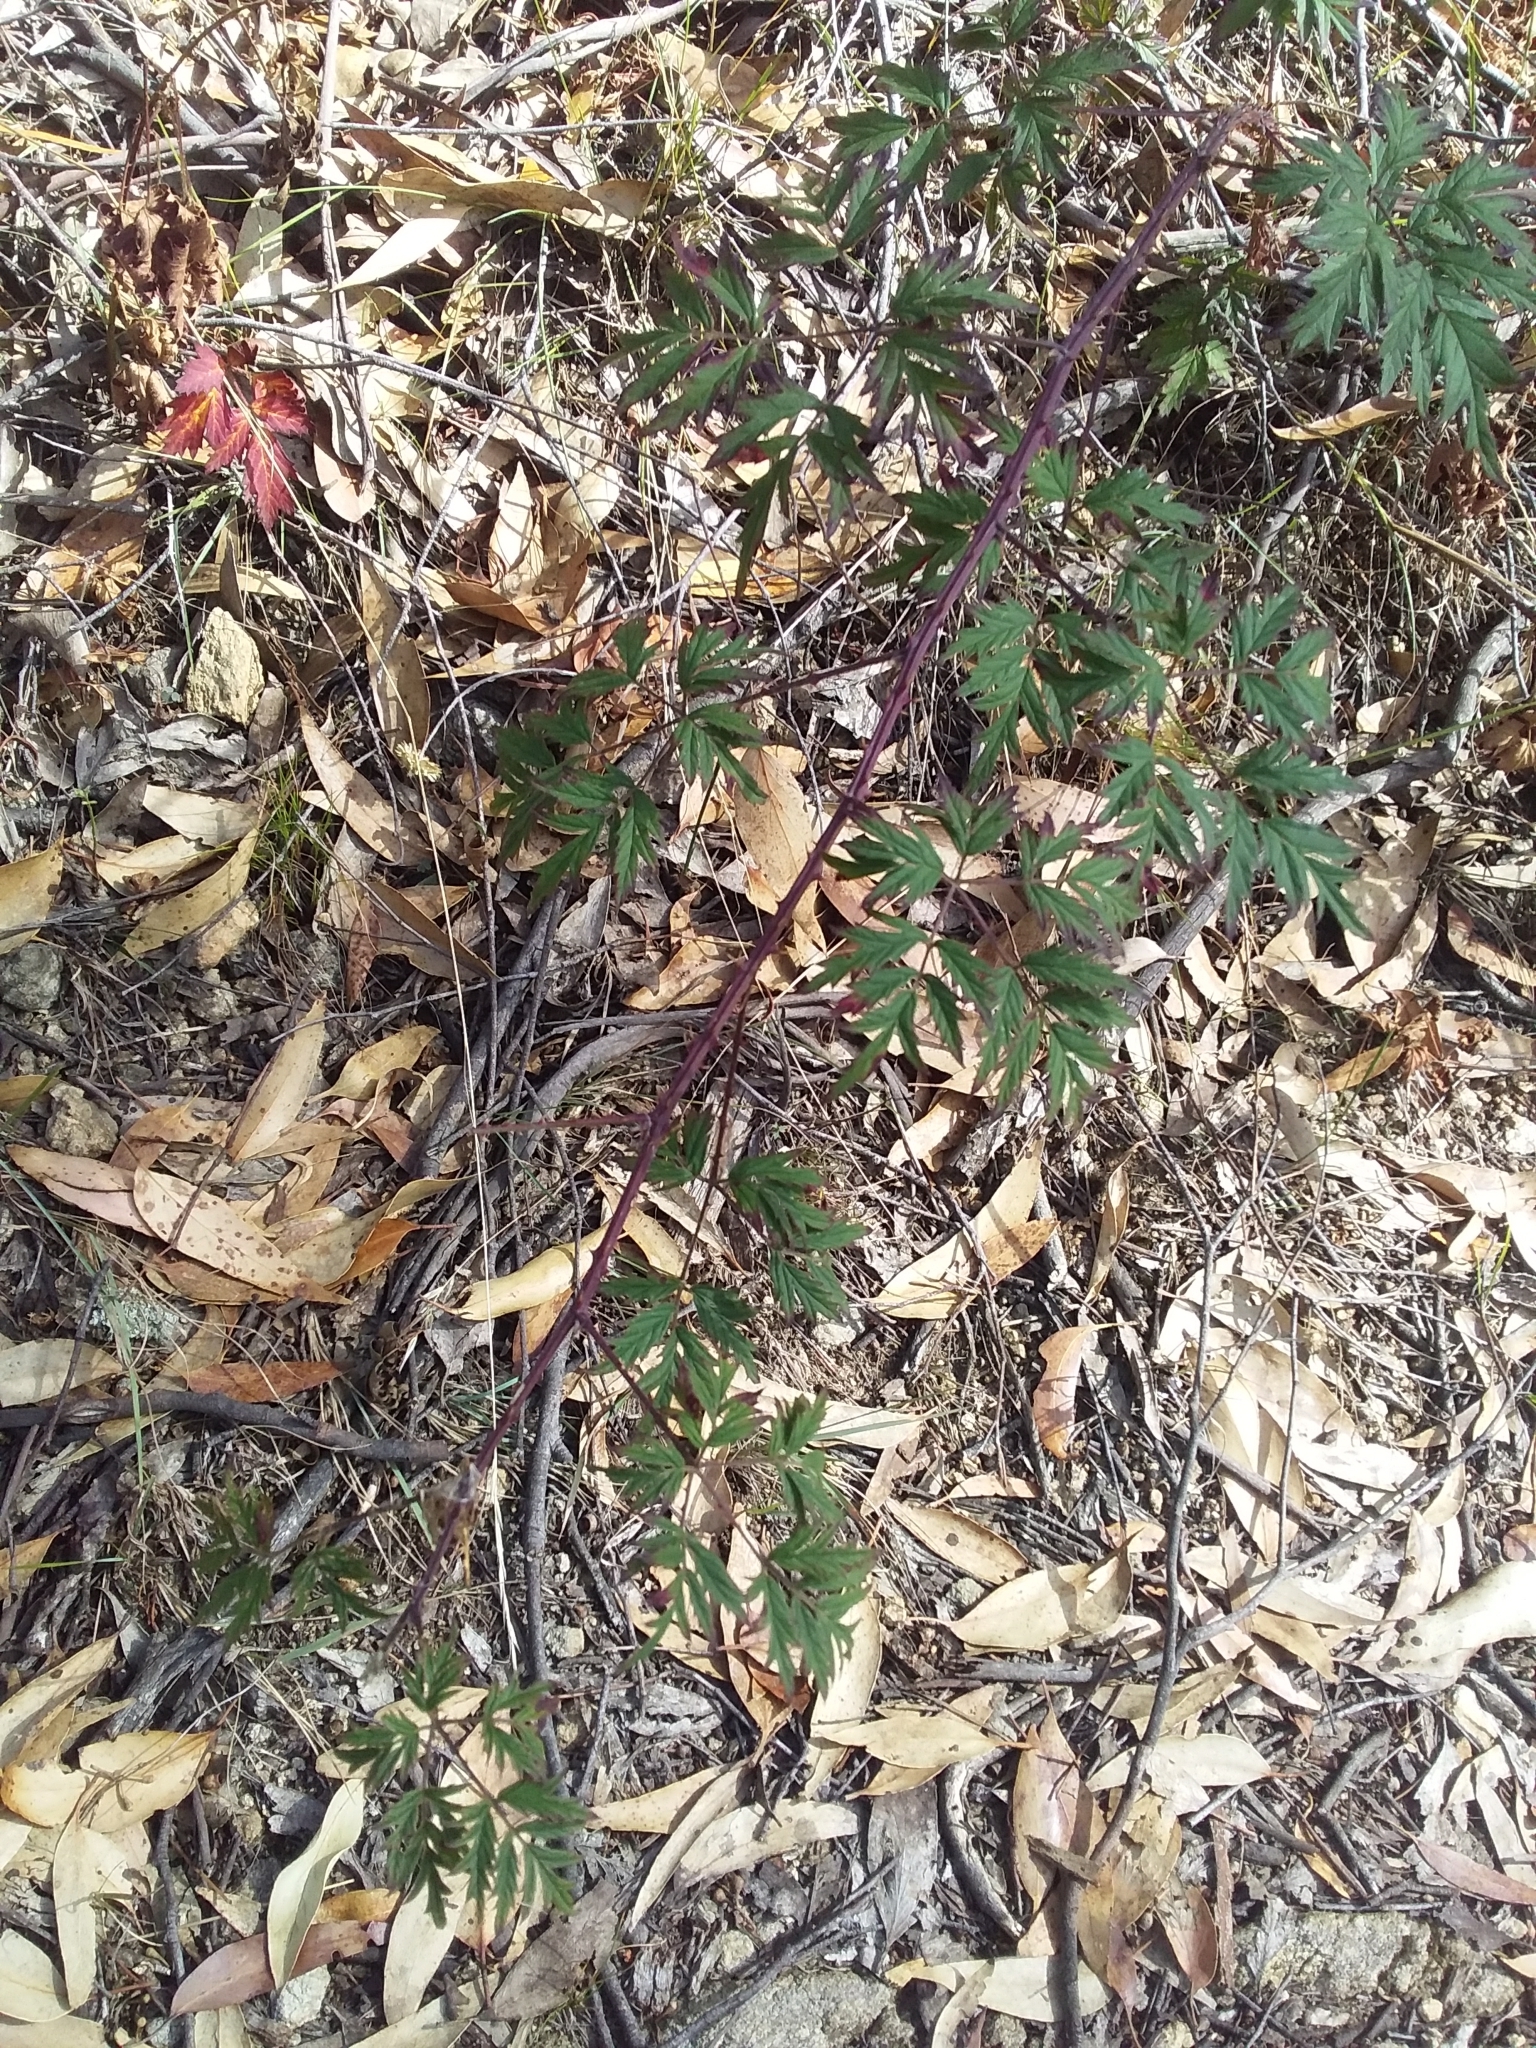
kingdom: Plantae
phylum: Tracheophyta
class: Magnoliopsida
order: Rosales
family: Rosaceae
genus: Rubus
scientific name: Rubus laciniatus
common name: Evergreen blackberry
